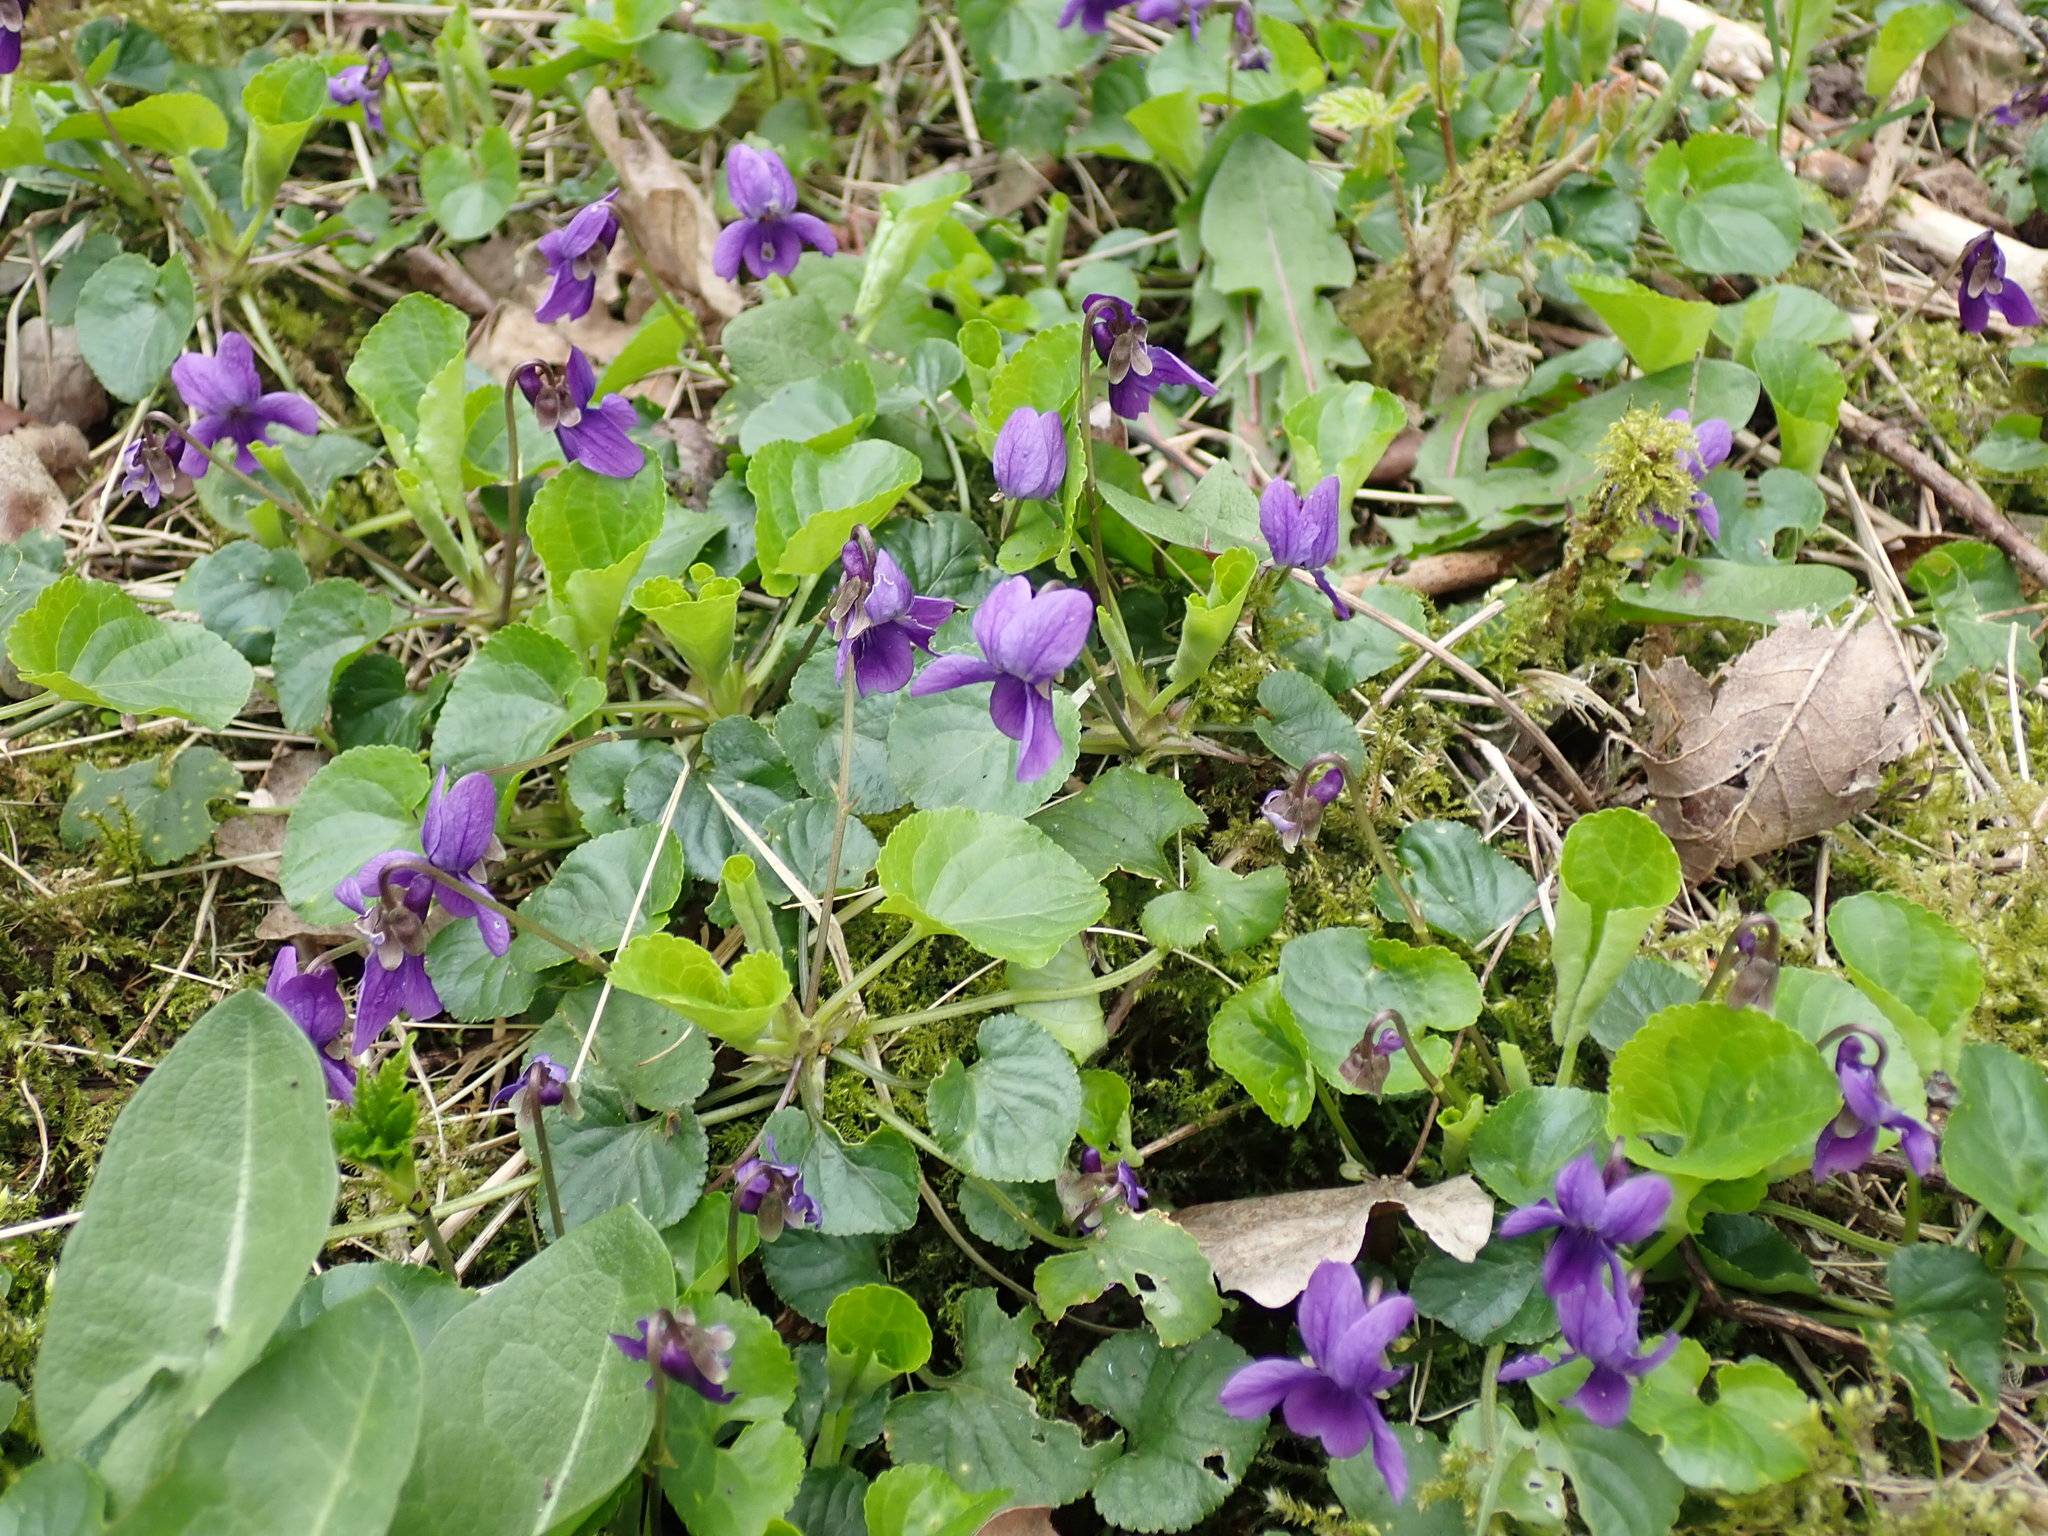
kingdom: Plantae
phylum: Tracheophyta
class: Magnoliopsida
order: Malpighiales
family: Violaceae
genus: Viola
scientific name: Viola odorata
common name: Sweet violet
